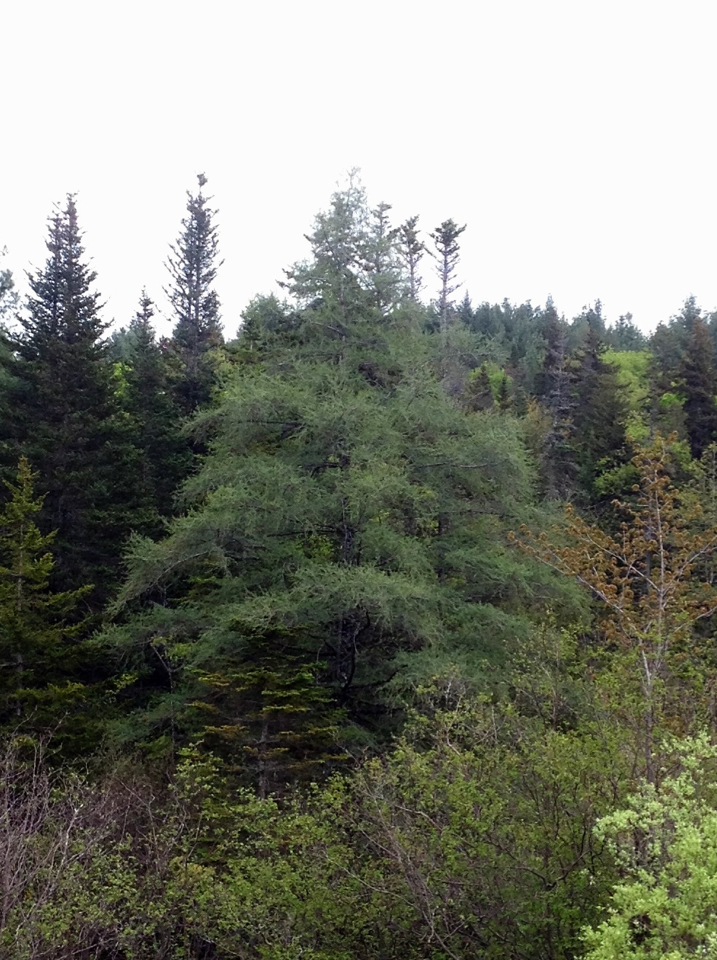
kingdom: Plantae
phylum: Tracheophyta
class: Pinopsida
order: Pinales
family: Pinaceae
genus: Larix
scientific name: Larix laricina
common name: American larch
